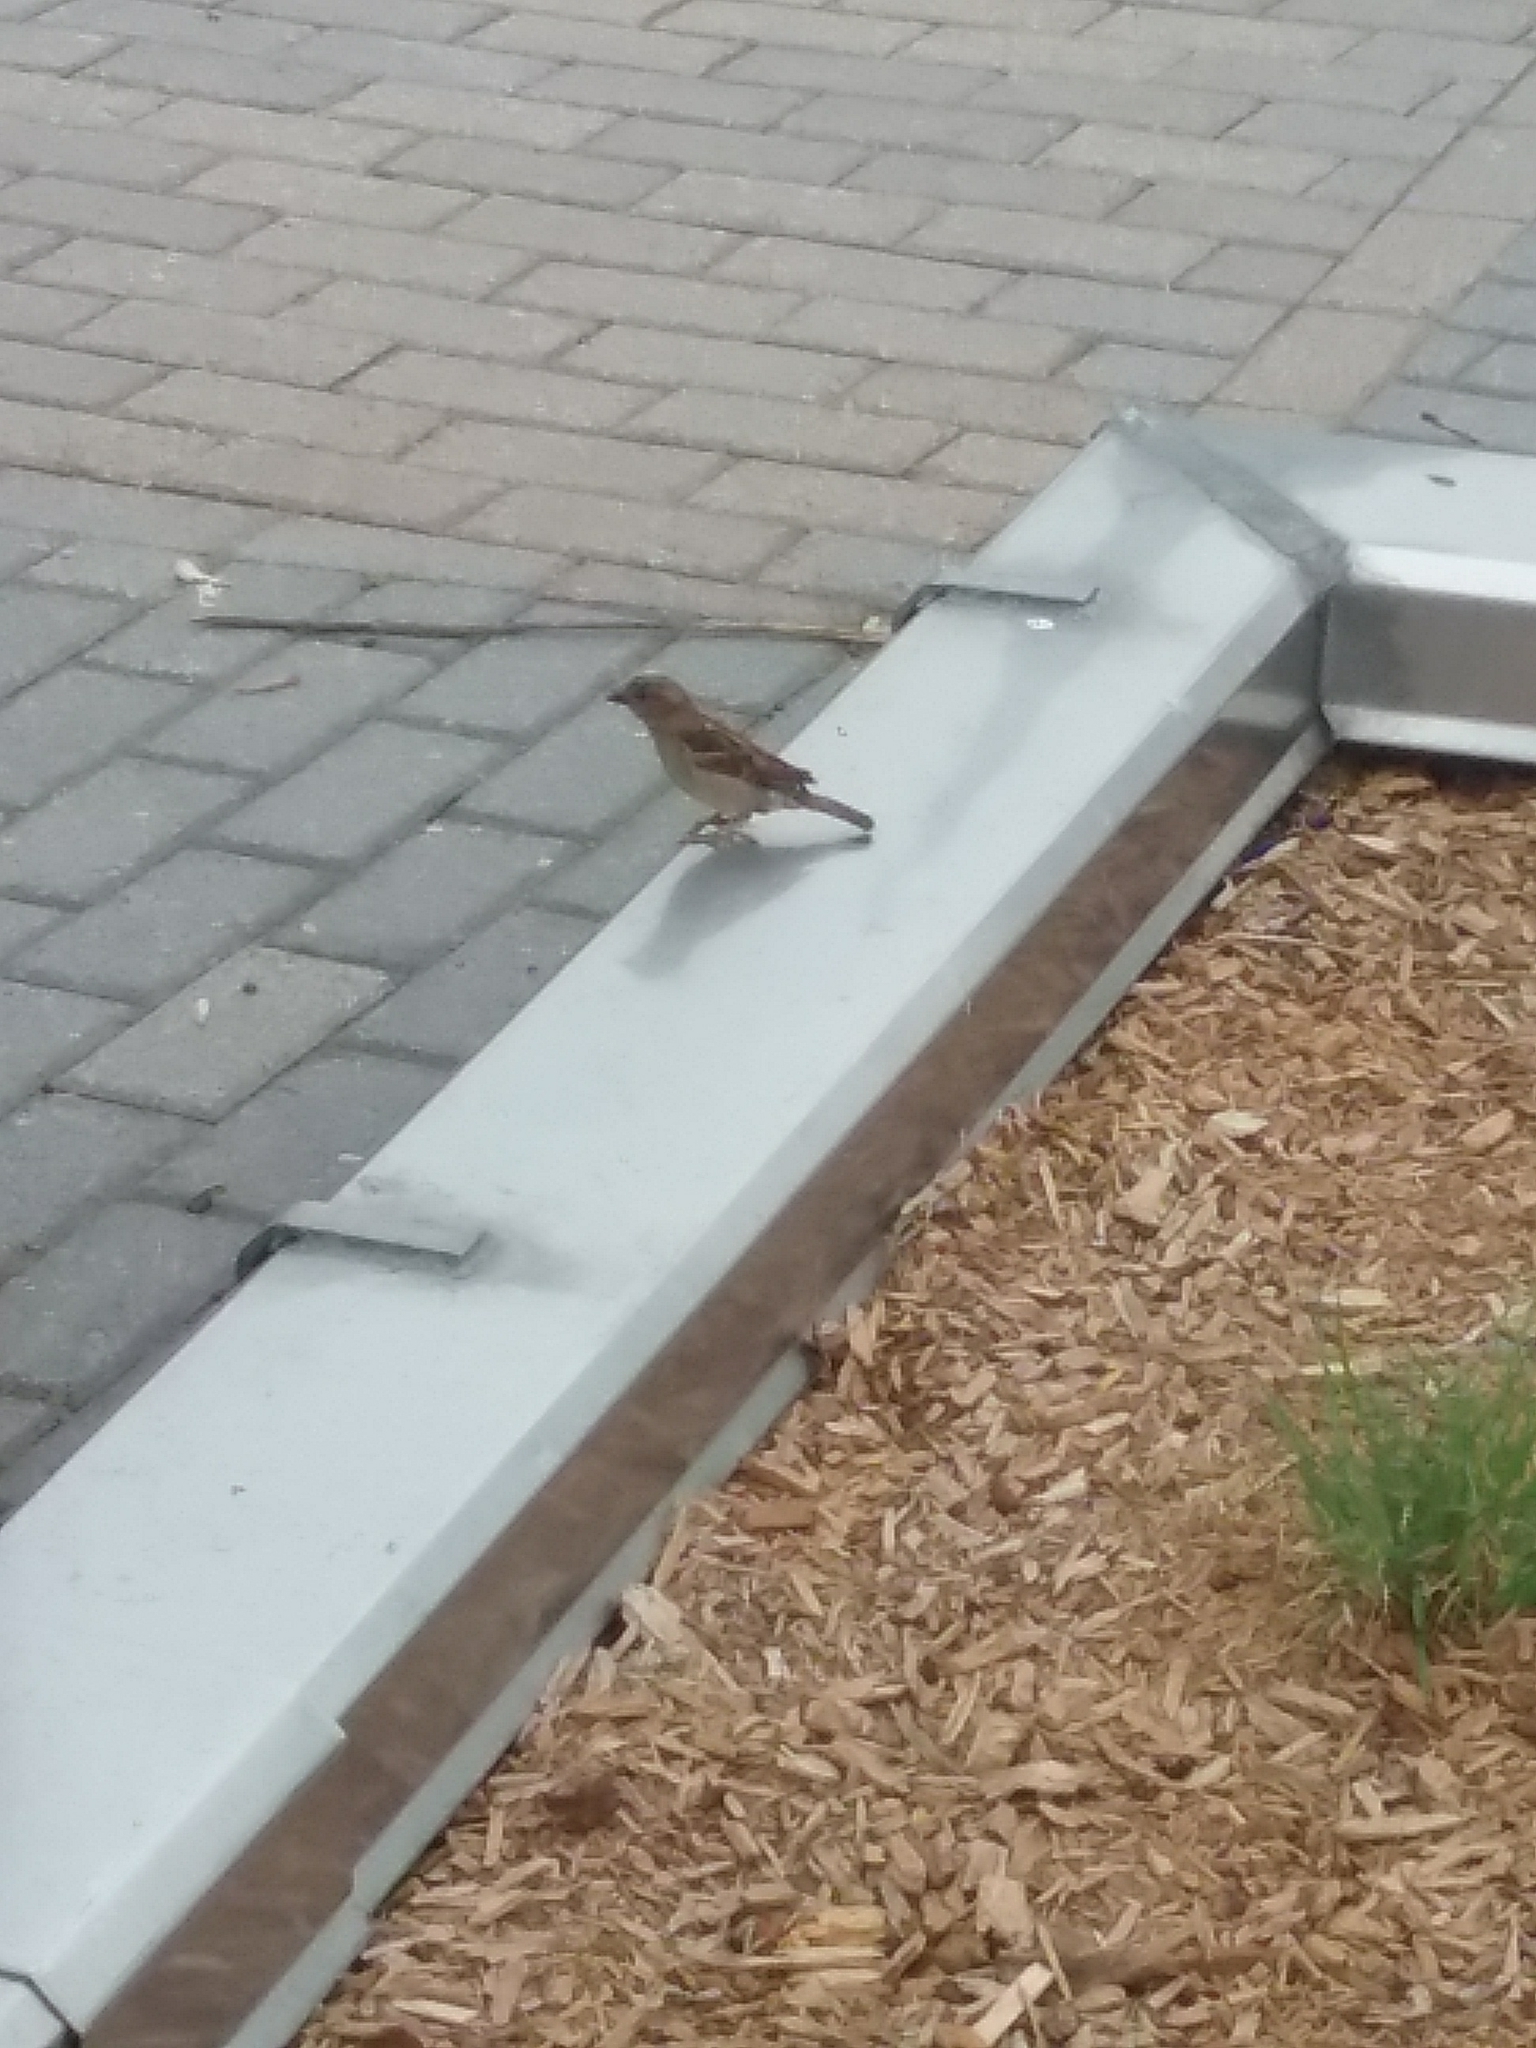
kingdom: Animalia
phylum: Chordata
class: Aves
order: Passeriformes
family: Passeridae
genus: Passer
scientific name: Passer domesticus
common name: House sparrow
